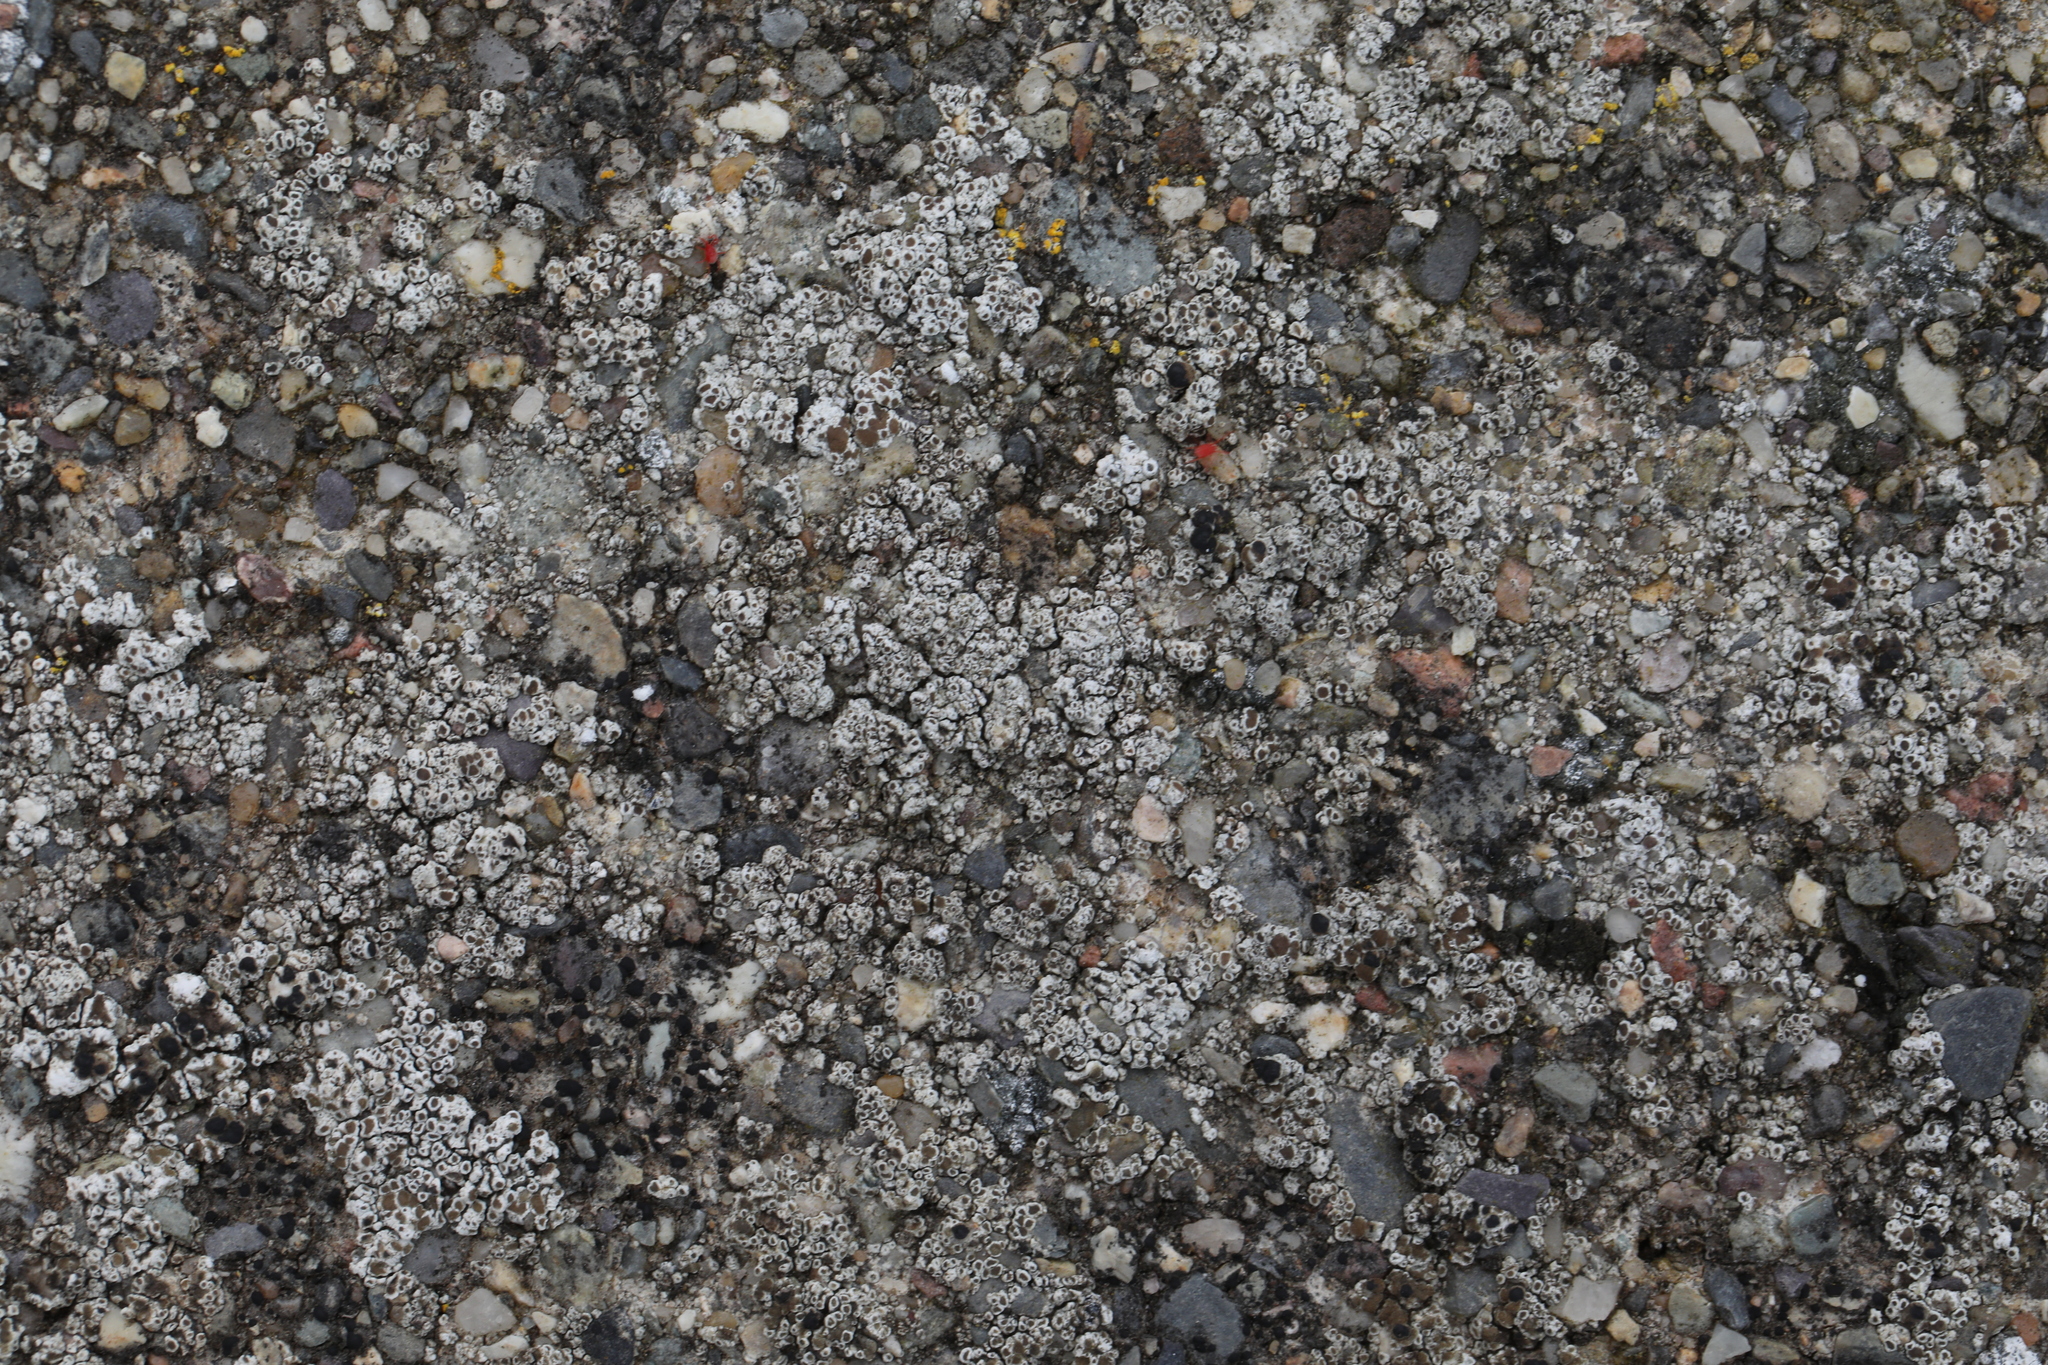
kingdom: Fungi
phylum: Ascomycota
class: Lecanoromycetes
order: Lecanorales
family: Lecanoraceae
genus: Polyozosia
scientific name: Polyozosia albescens
